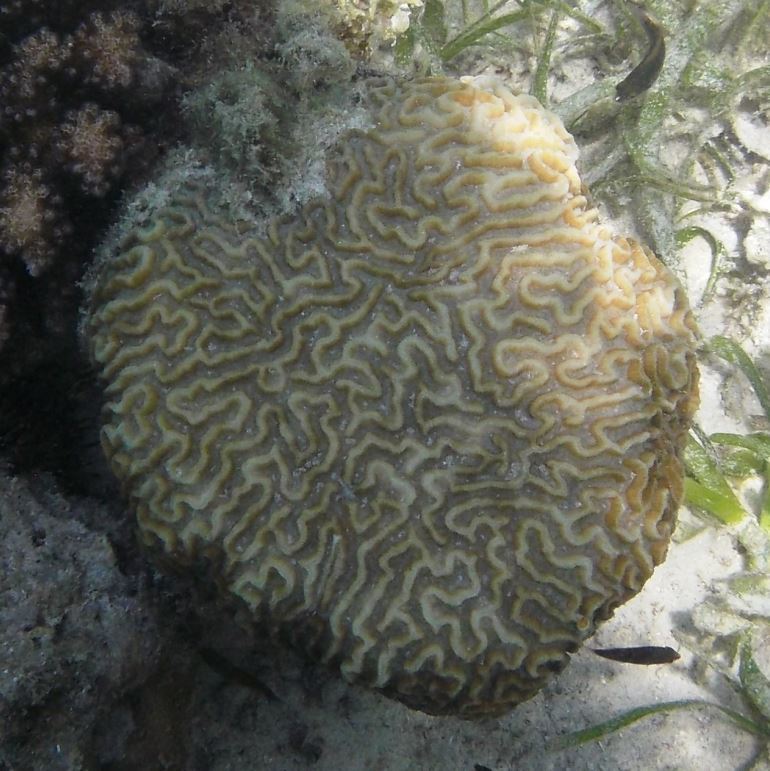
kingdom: Animalia
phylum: Cnidaria
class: Anthozoa
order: Scleractinia
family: Merulinidae
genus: Platygyra
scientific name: Platygyra daedalea
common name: Lesser valley coral
